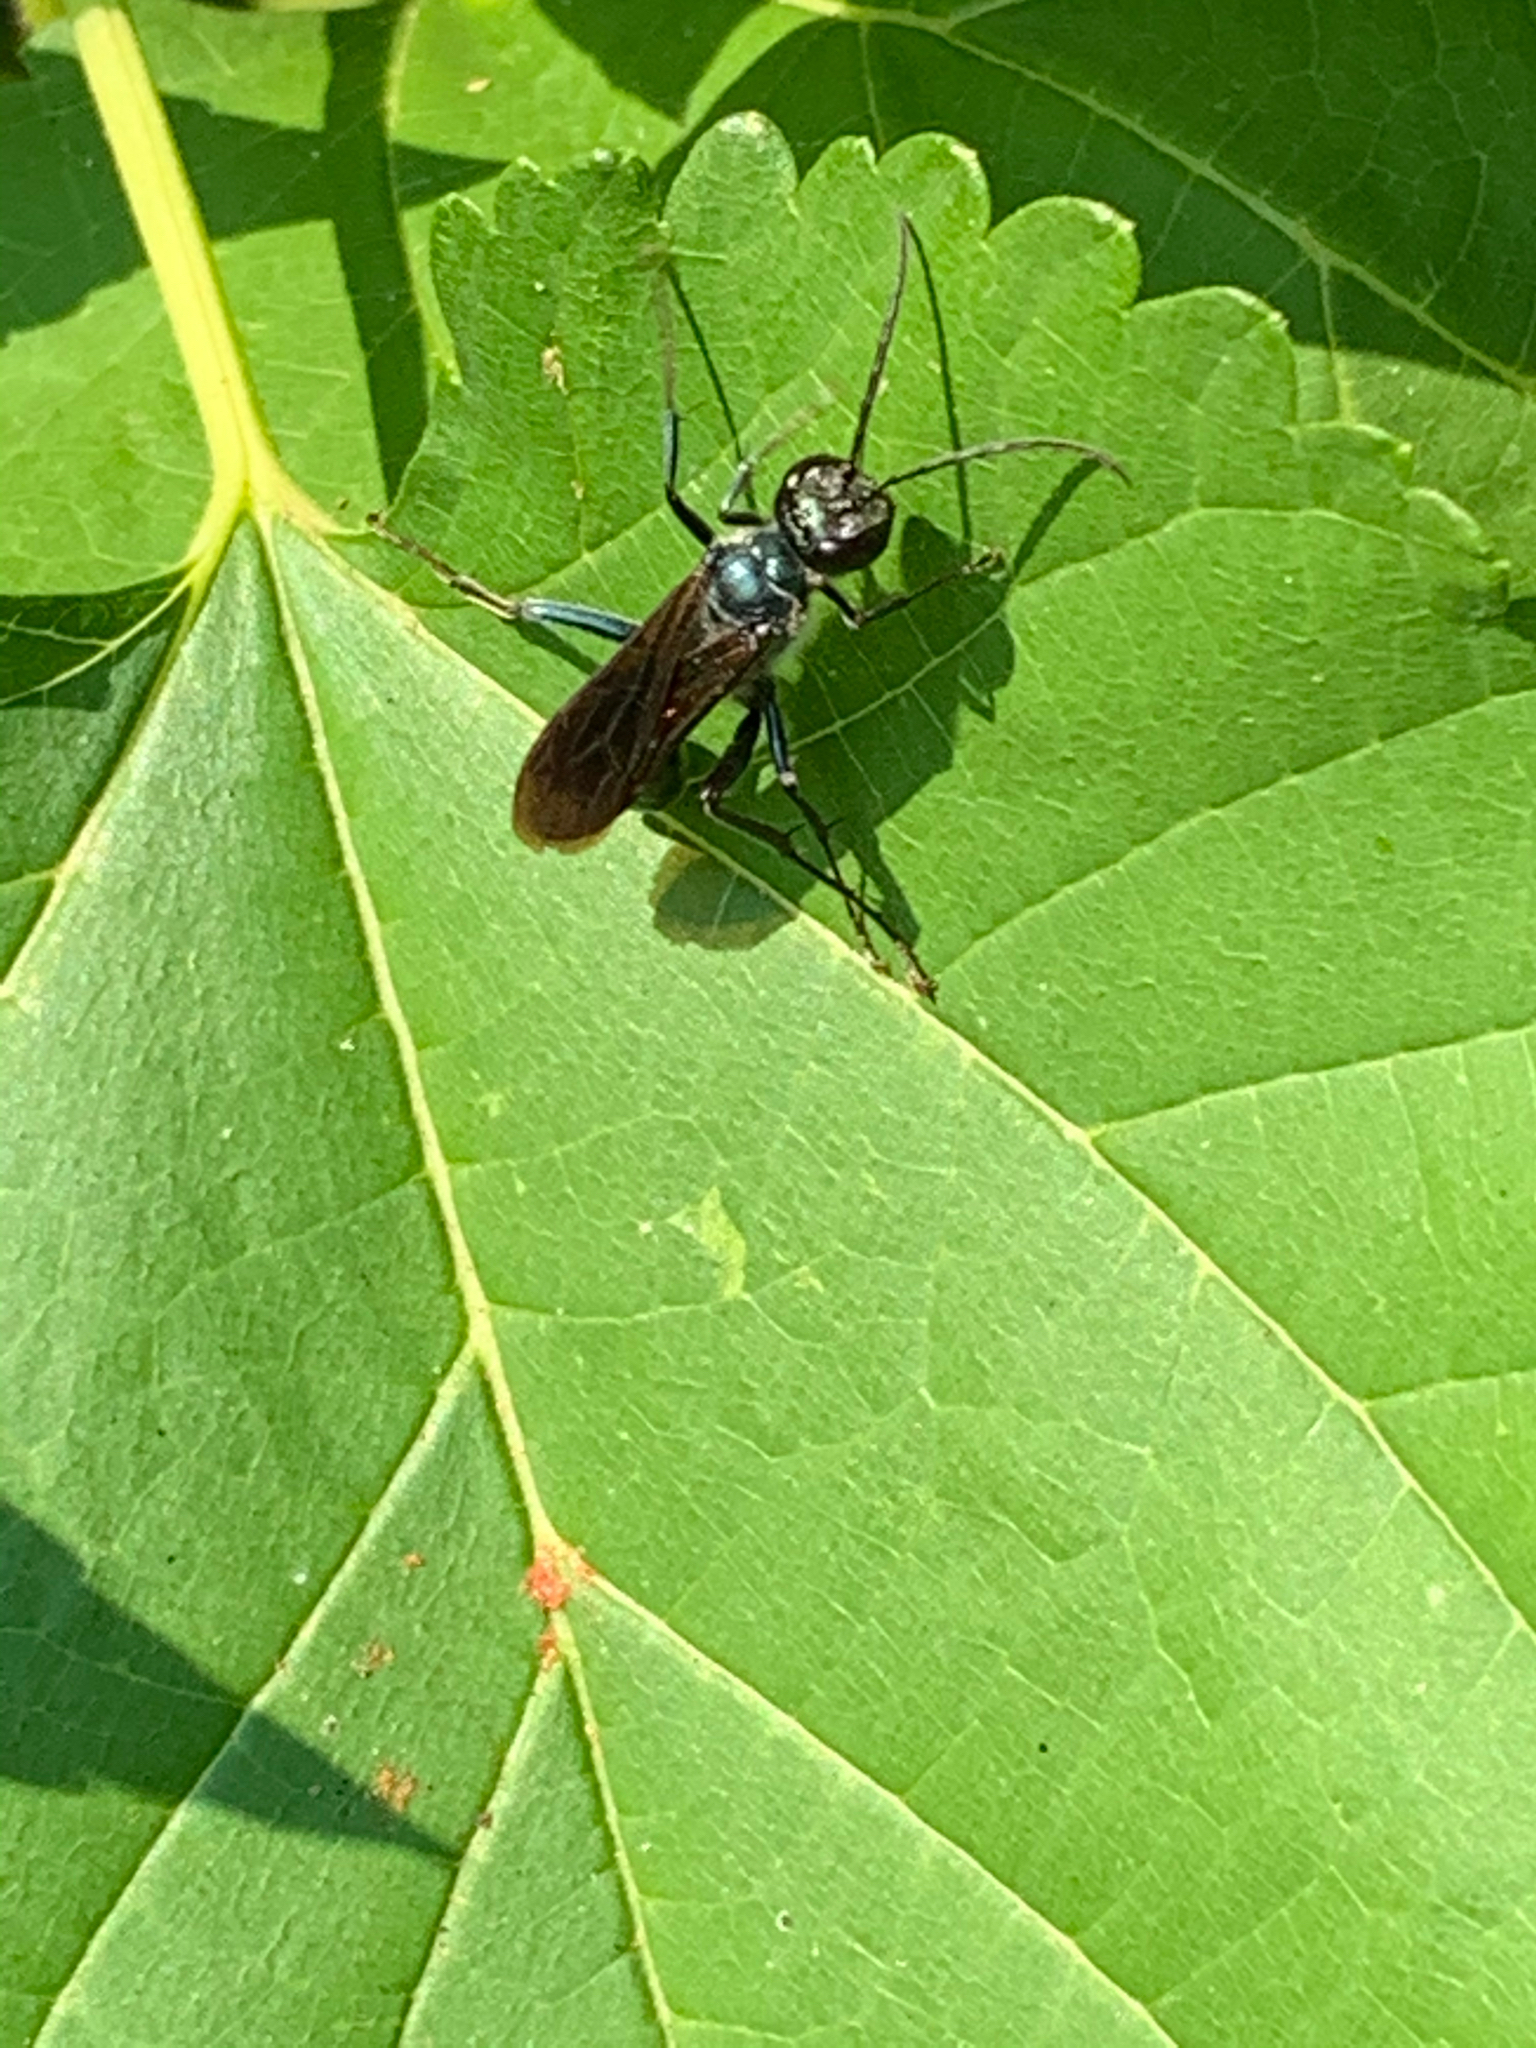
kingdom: Animalia
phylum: Arthropoda
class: Insecta
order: Hymenoptera
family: Sphecidae
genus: Chalybion
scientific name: Chalybion californicum
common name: Mud dauber
